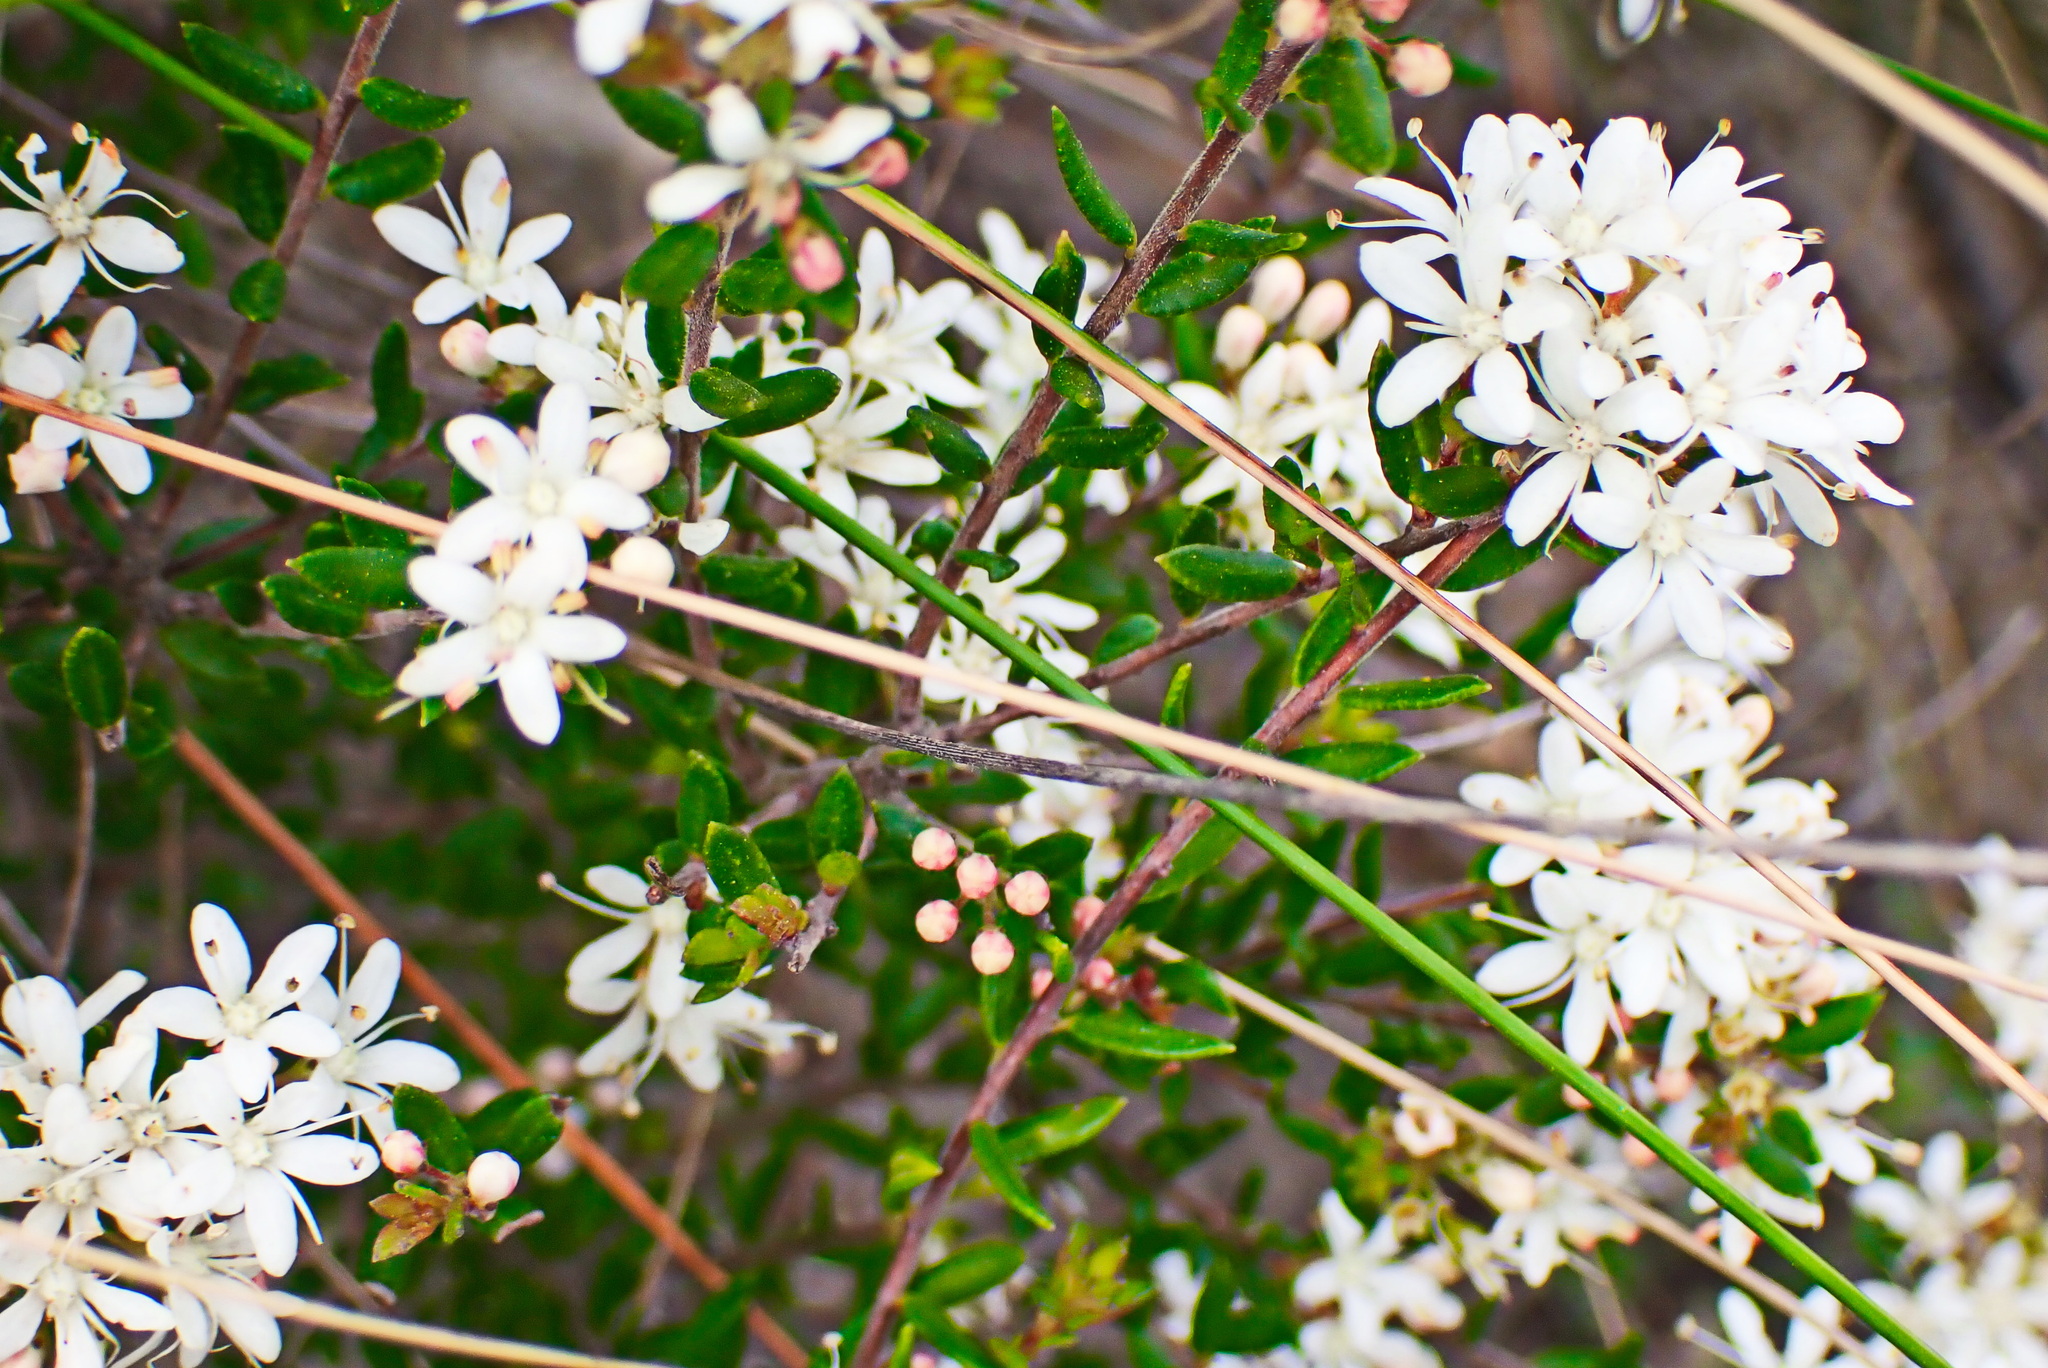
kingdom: Plantae
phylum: Tracheophyta
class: Magnoliopsida
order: Sapindales
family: Rutaceae
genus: Agathosma
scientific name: Agathosma mundtii
